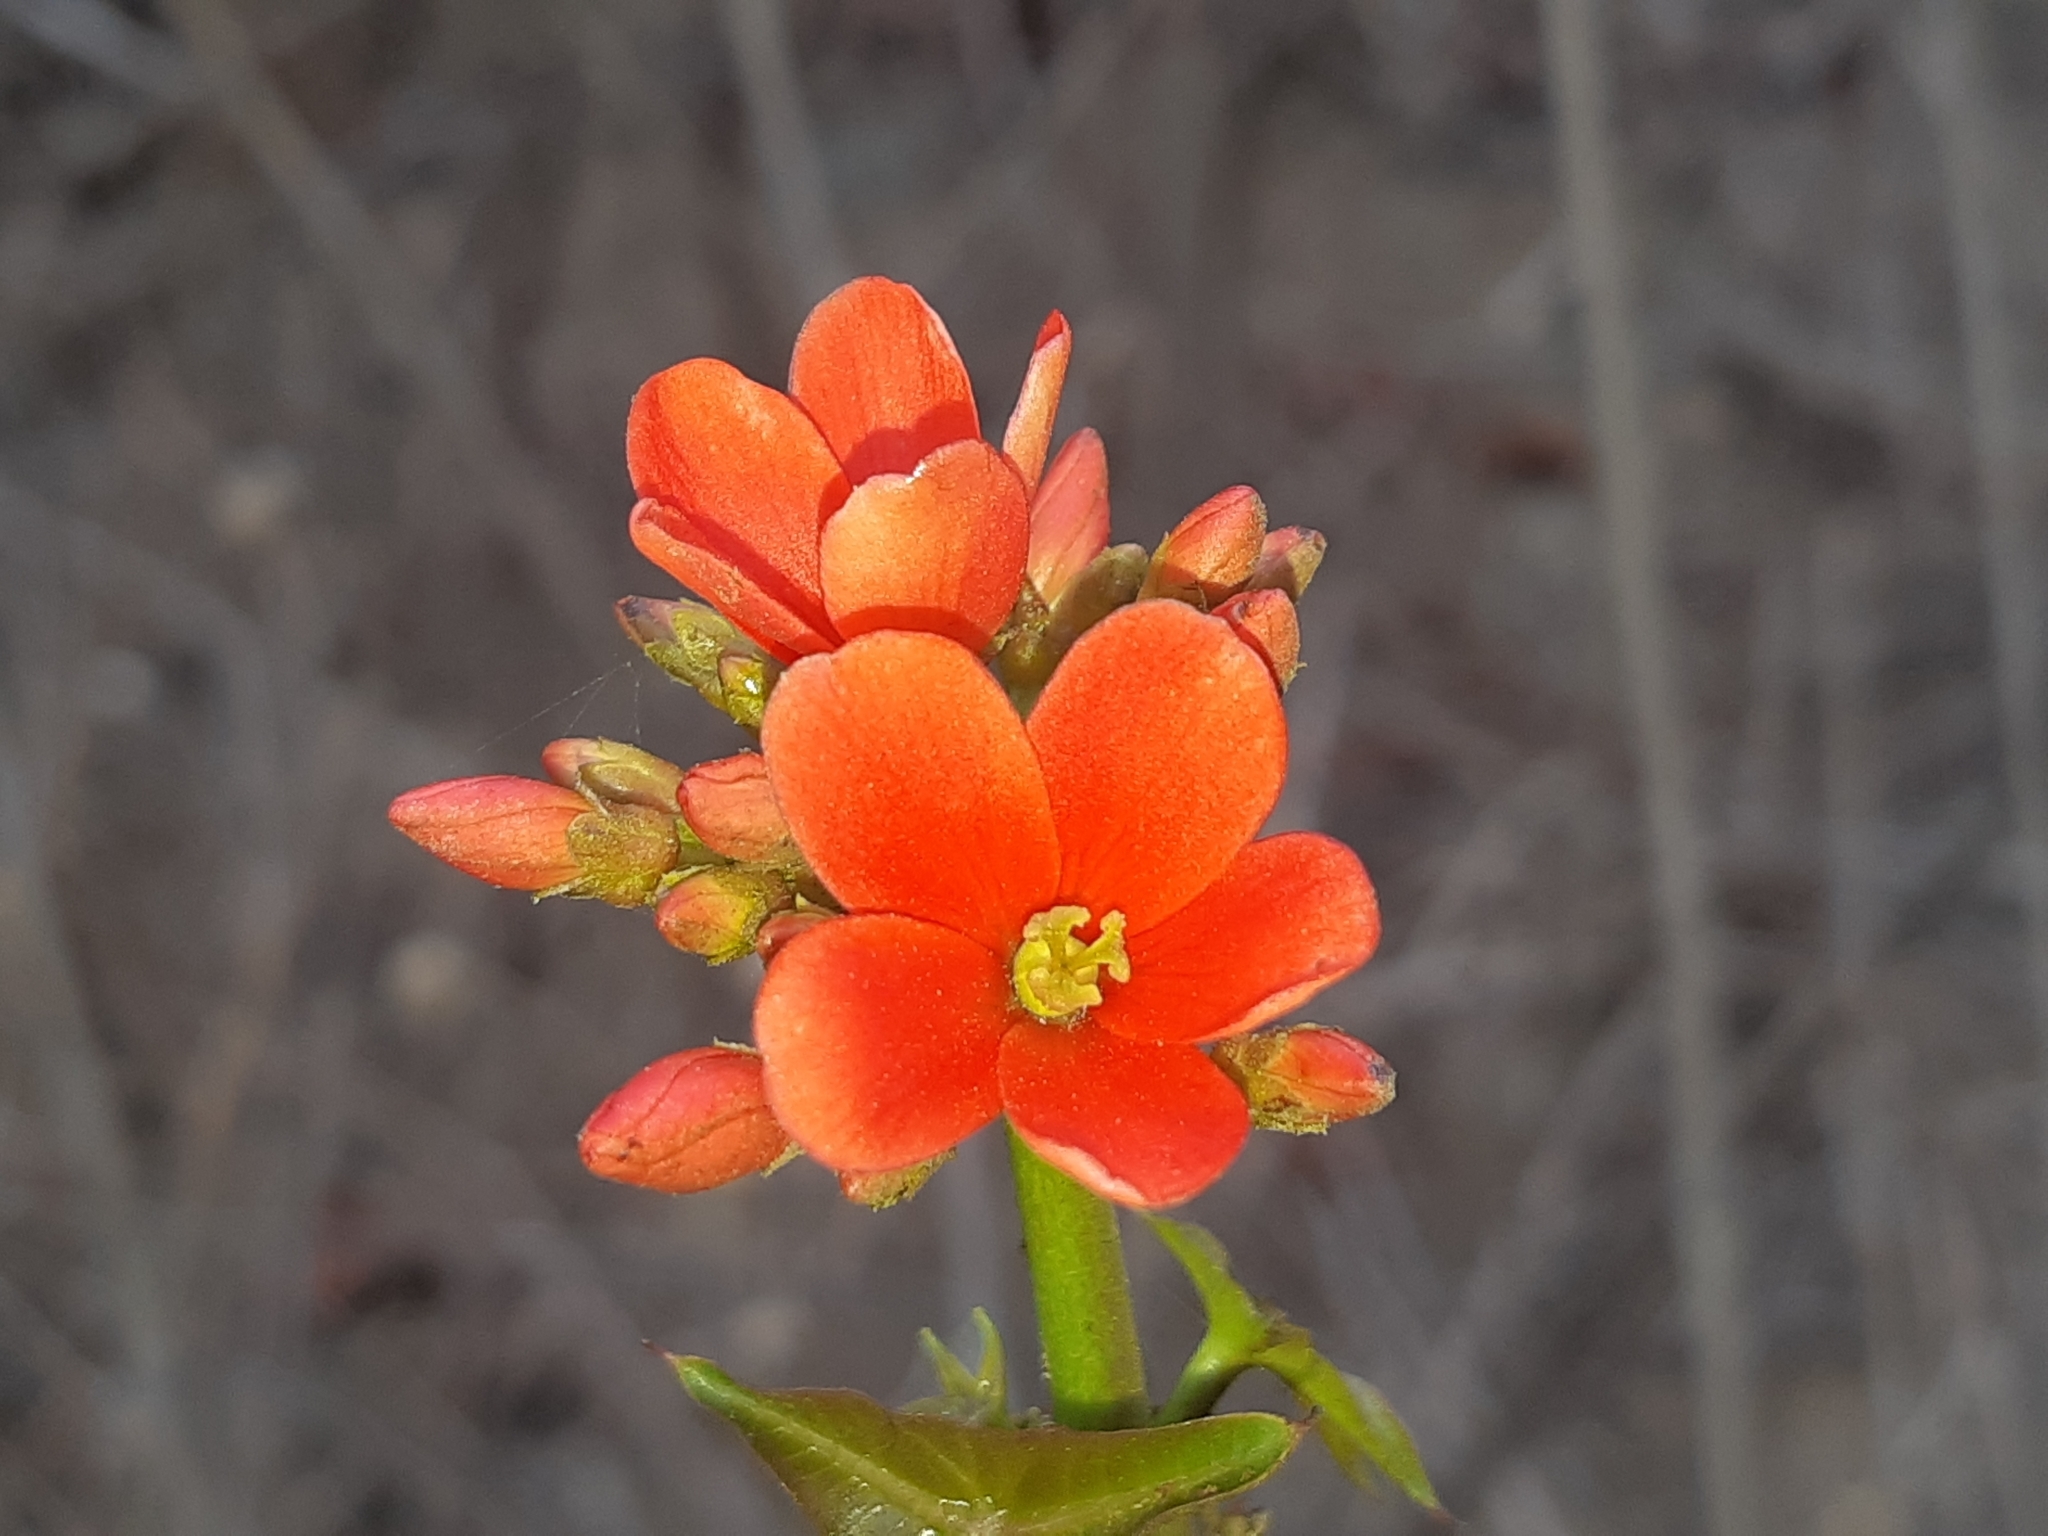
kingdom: Plantae
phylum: Tracheophyta
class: Magnoliopsida
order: Malpighiales
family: Euphorbiaceae
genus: Jatropha
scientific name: Jatropha nudicaulis
